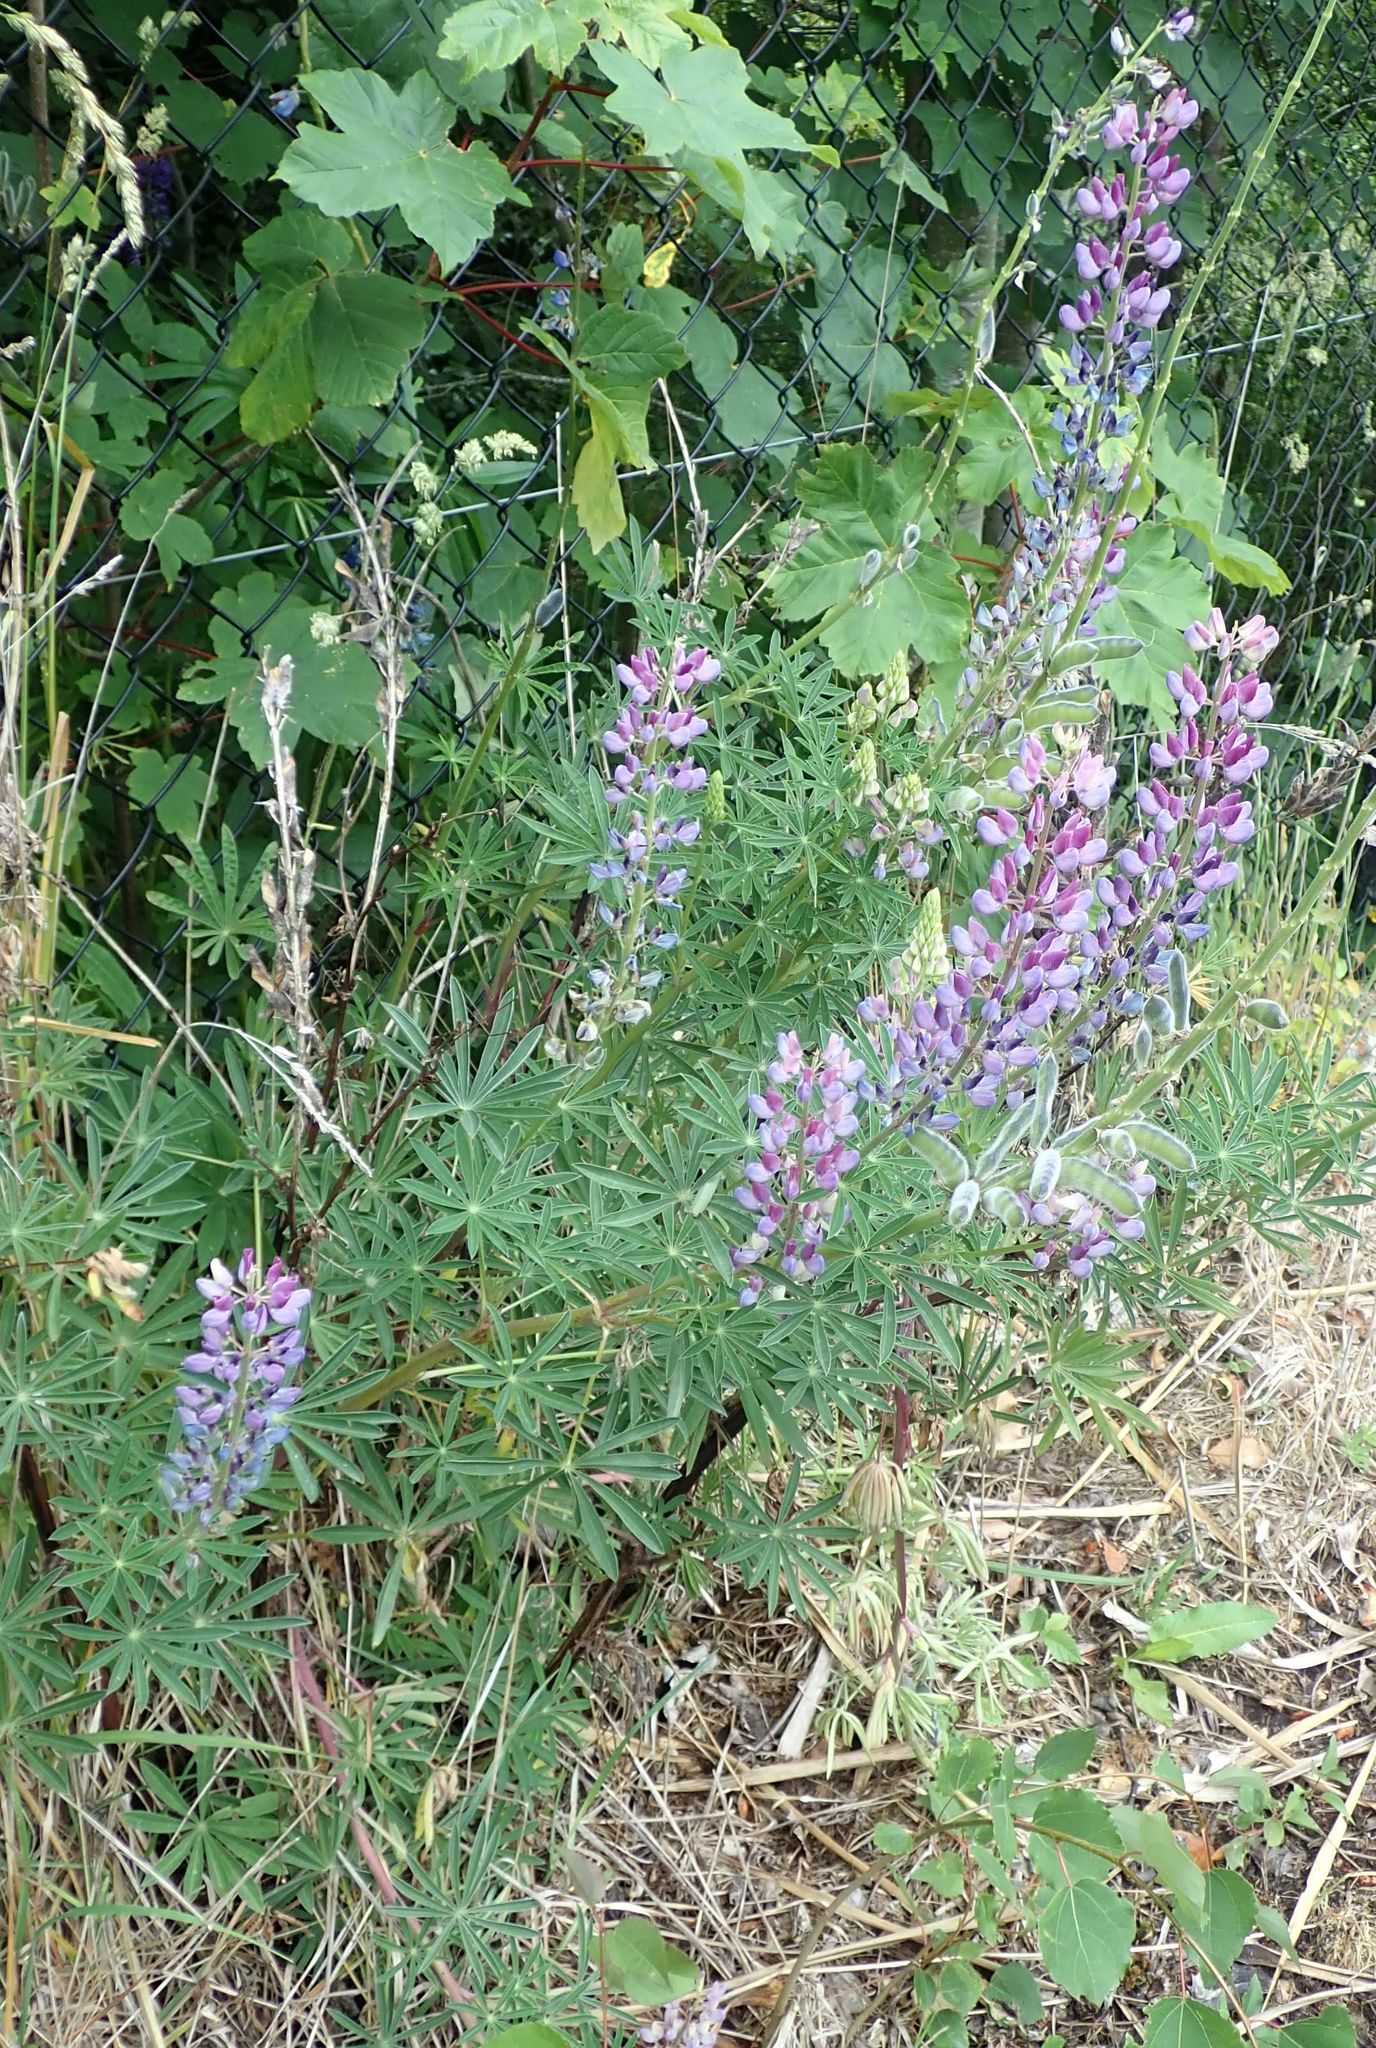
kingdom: Plantae
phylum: Tracheophyta
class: Magnoliopsida
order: Fabales
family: Fabaceae
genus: Lupinus
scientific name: Lupinus polyphyllus
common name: Garden lupin
